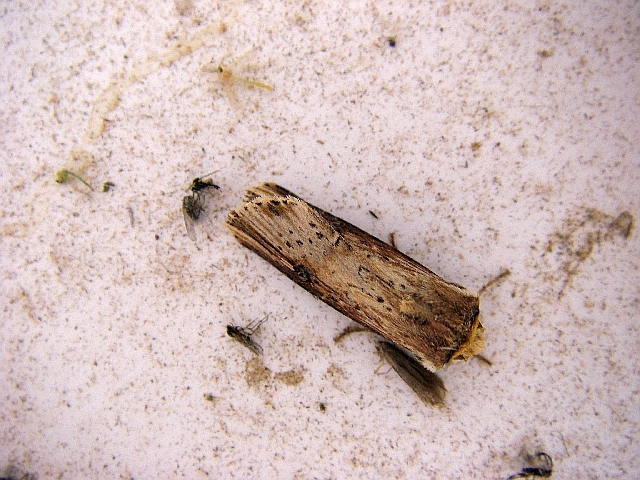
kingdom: Animalia
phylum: Arthropoda
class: Insecta
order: Lepidoptera
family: Noctuidae
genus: Axylia
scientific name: Axylia putris
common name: Flame
